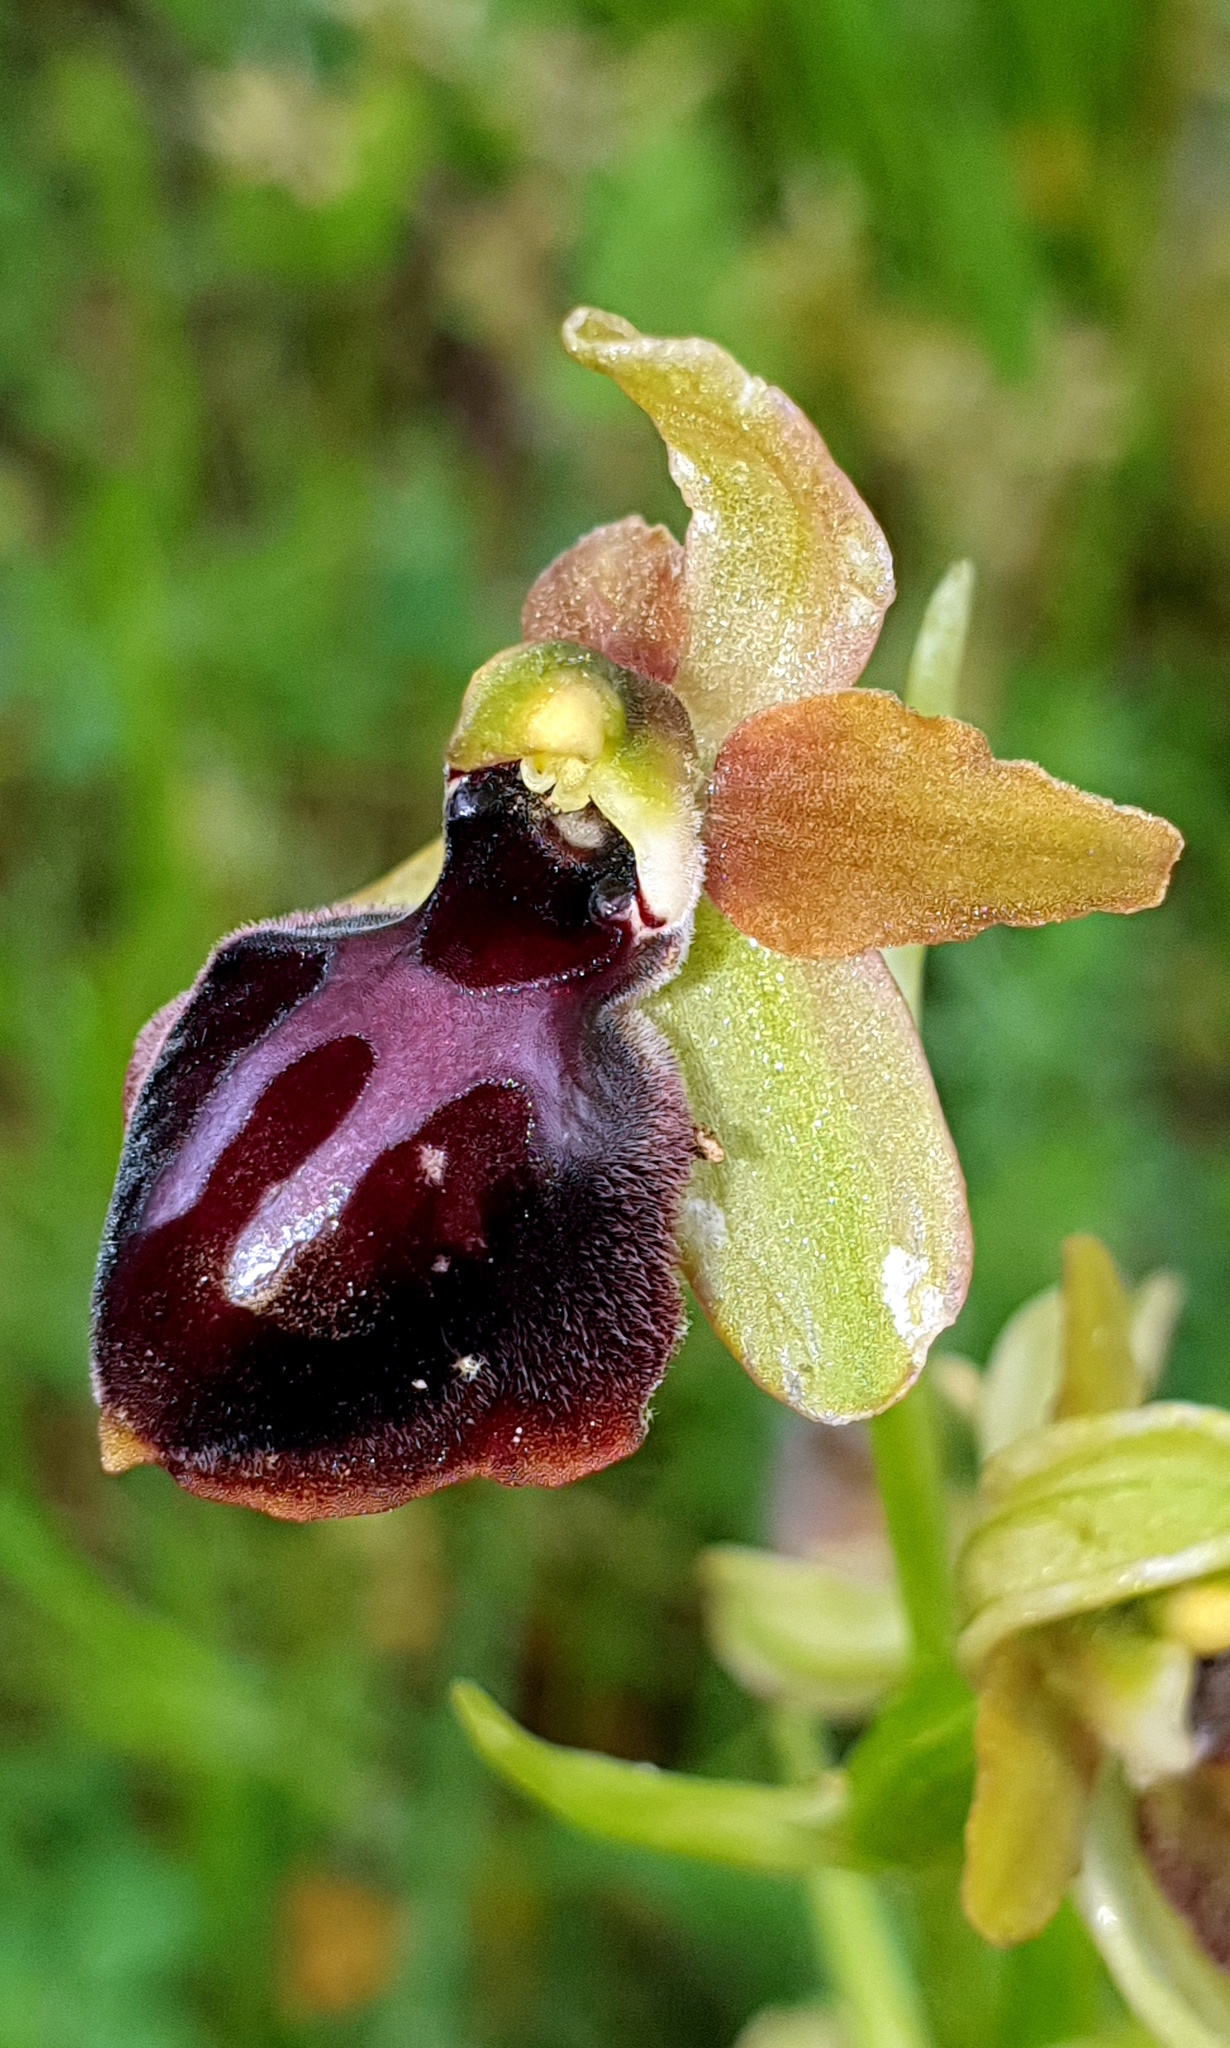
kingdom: Plantae
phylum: Tracheophyta
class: Liliopsida
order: Asparagales
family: Orchidaceae
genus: Ophrys
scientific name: Ophrys sphegodes
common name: Early spider-orchid
